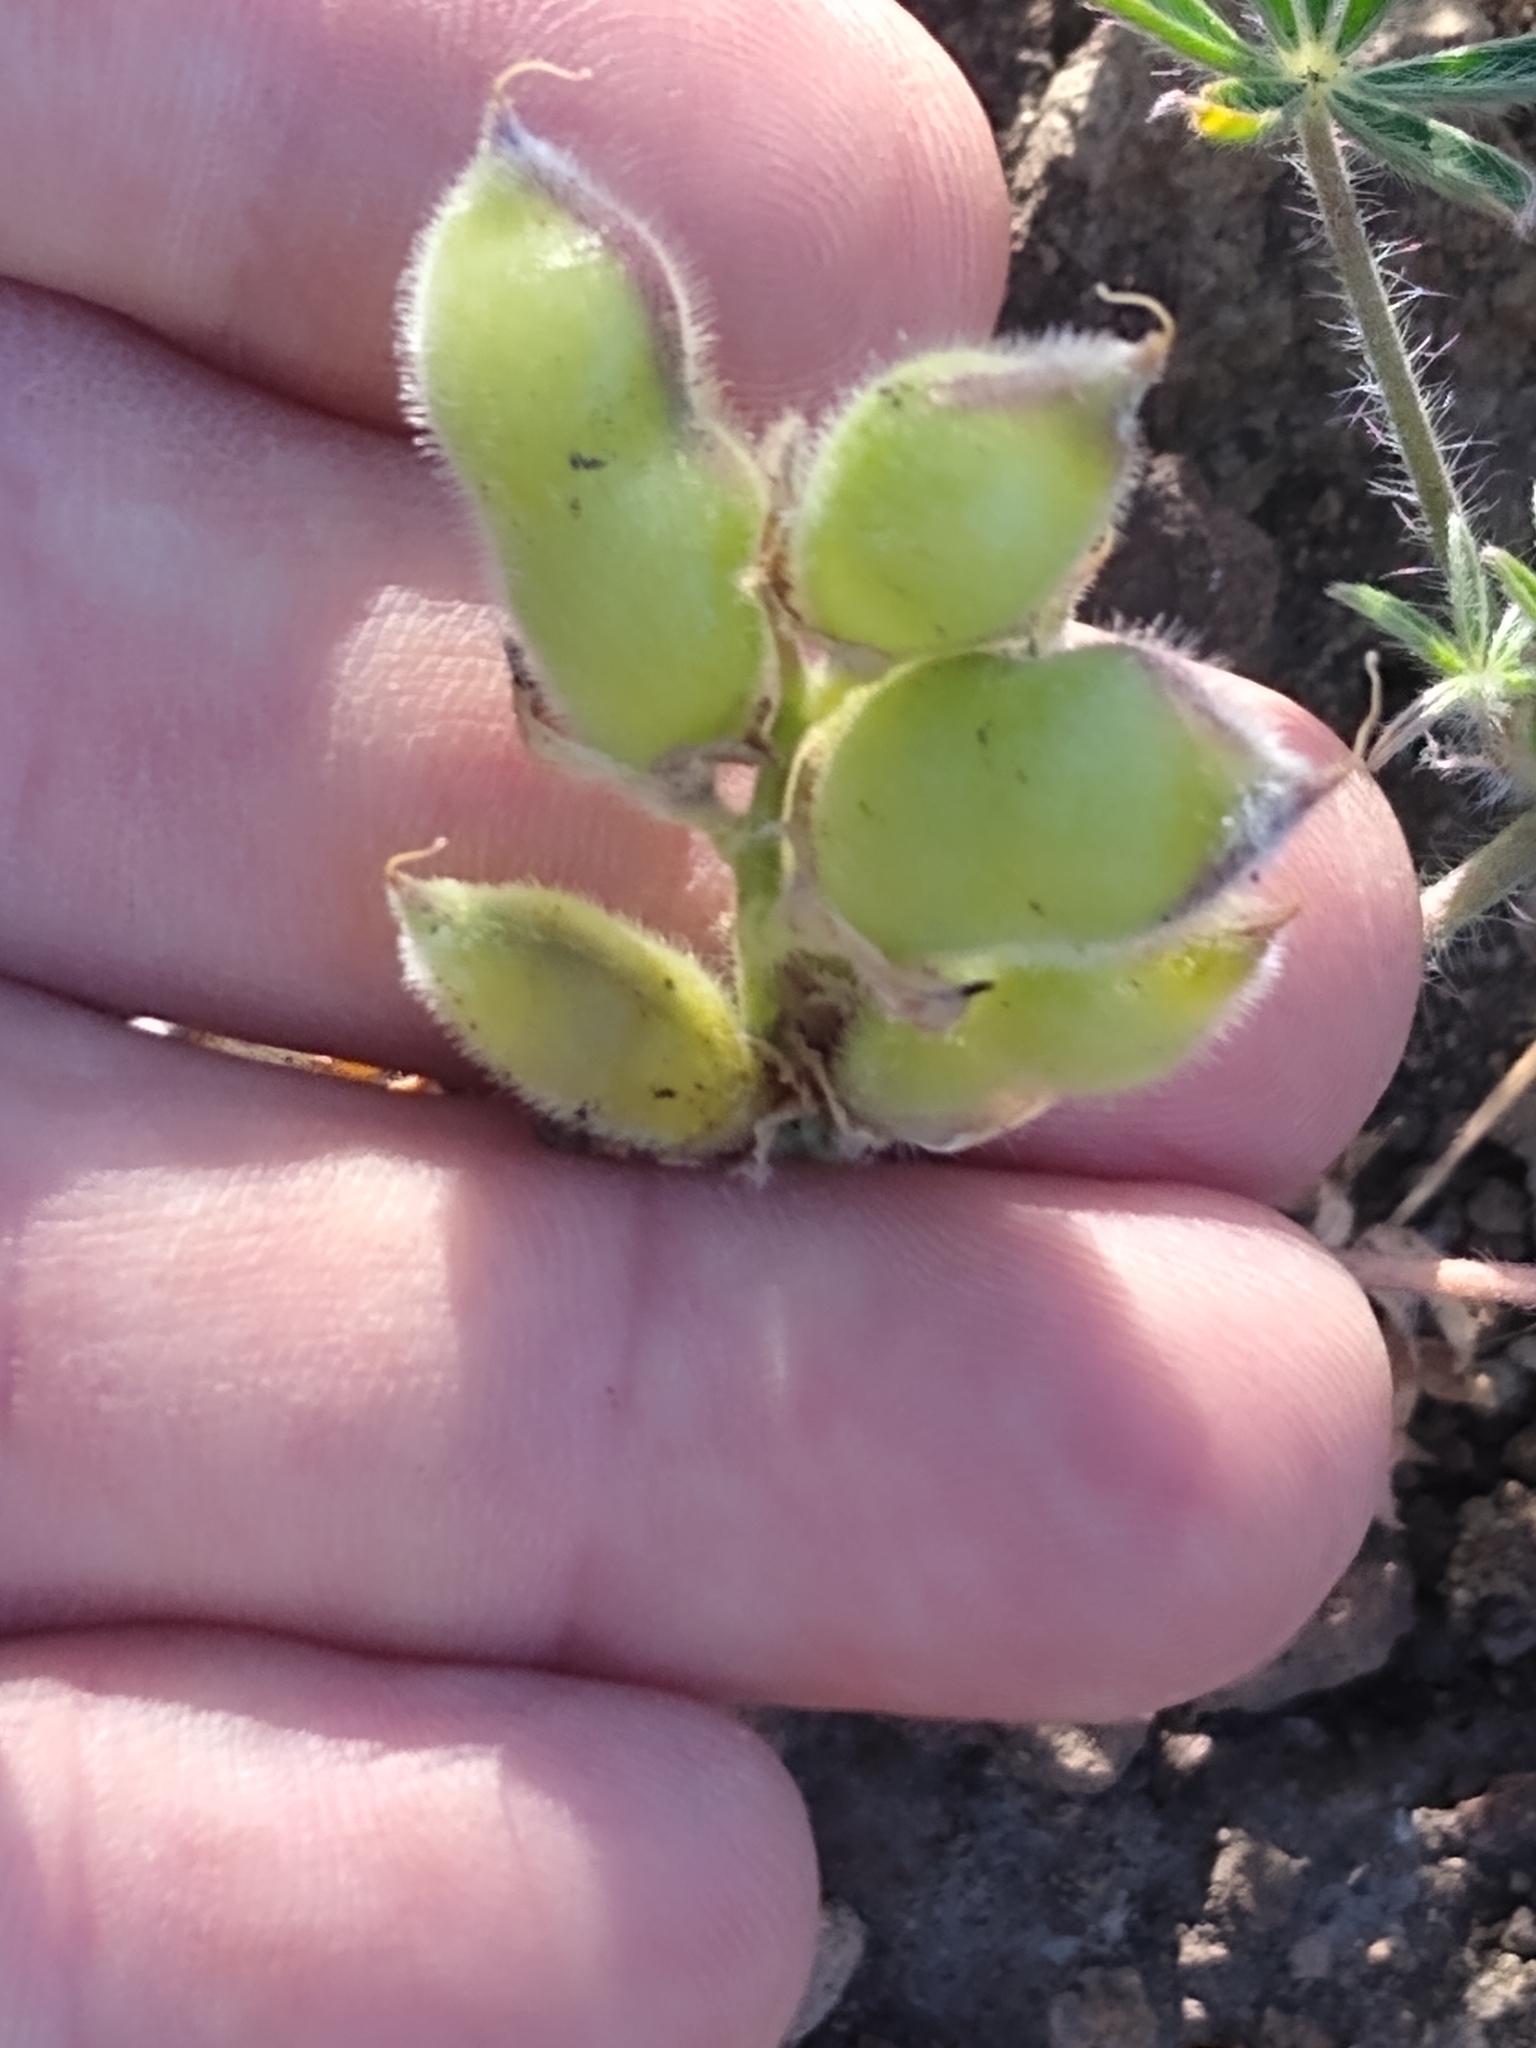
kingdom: Plantae
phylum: Tracheophyta
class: Magnoliopsida
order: Fabales
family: Fabaceae
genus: Lupinus
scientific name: Lupinus bicolor
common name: Miniature lupine
